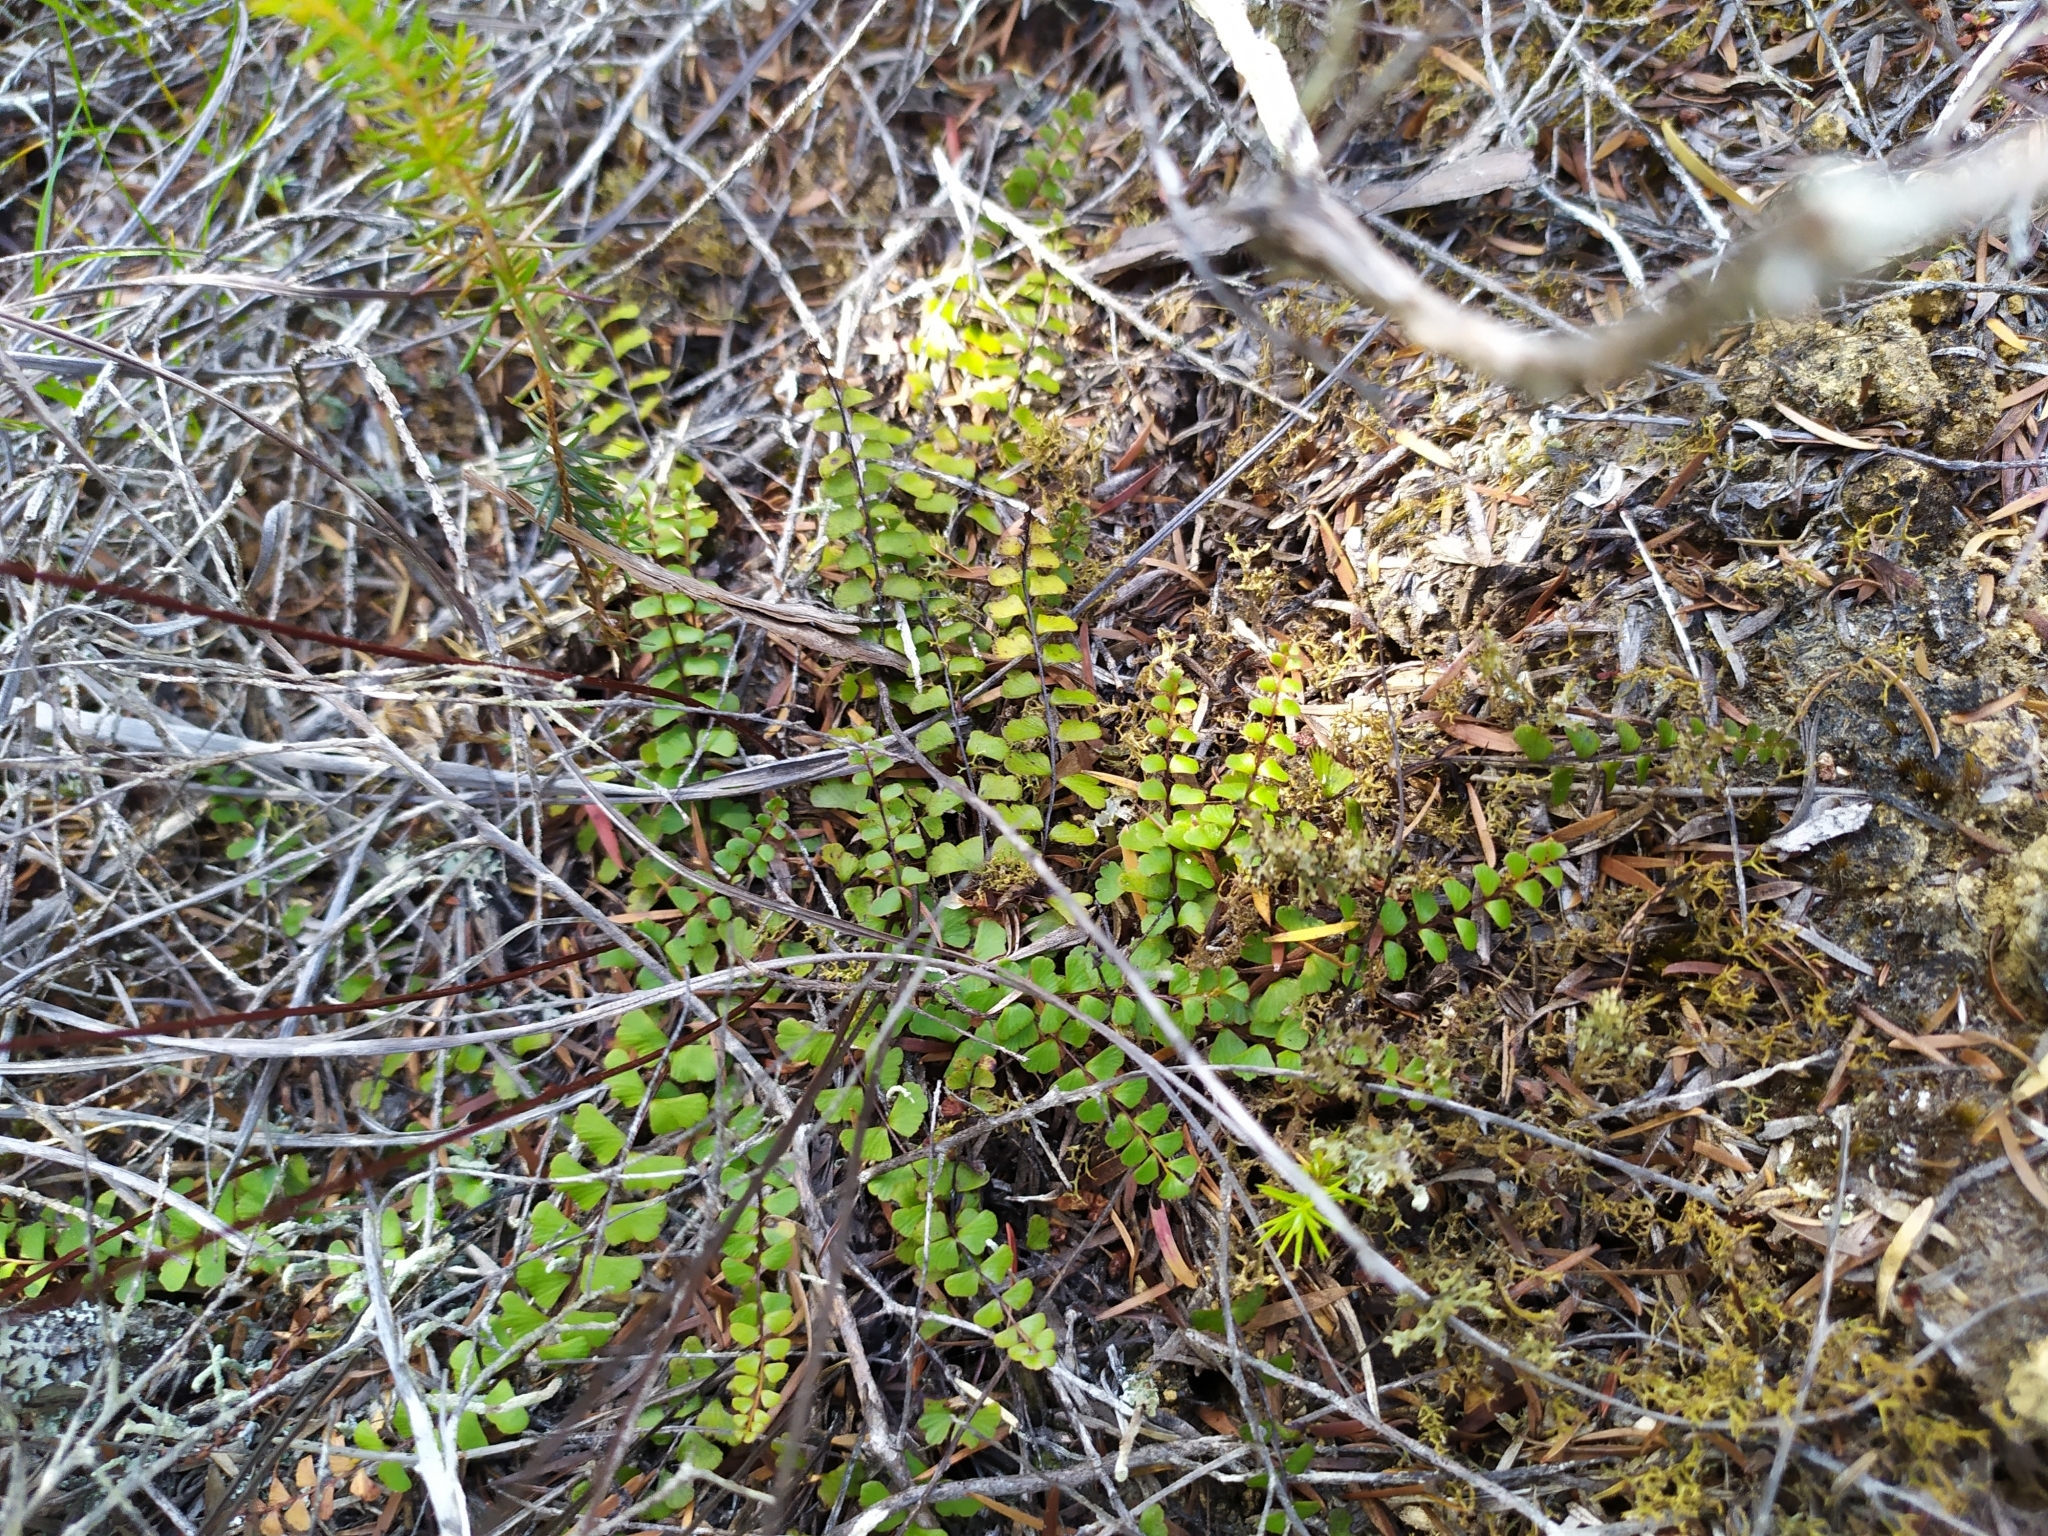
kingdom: Plantae
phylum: Tracheophyta
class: Polypodiopsida
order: Polypodiales
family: Lindsaeaceae
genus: Lindsaea
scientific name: Lindsaea linearis
